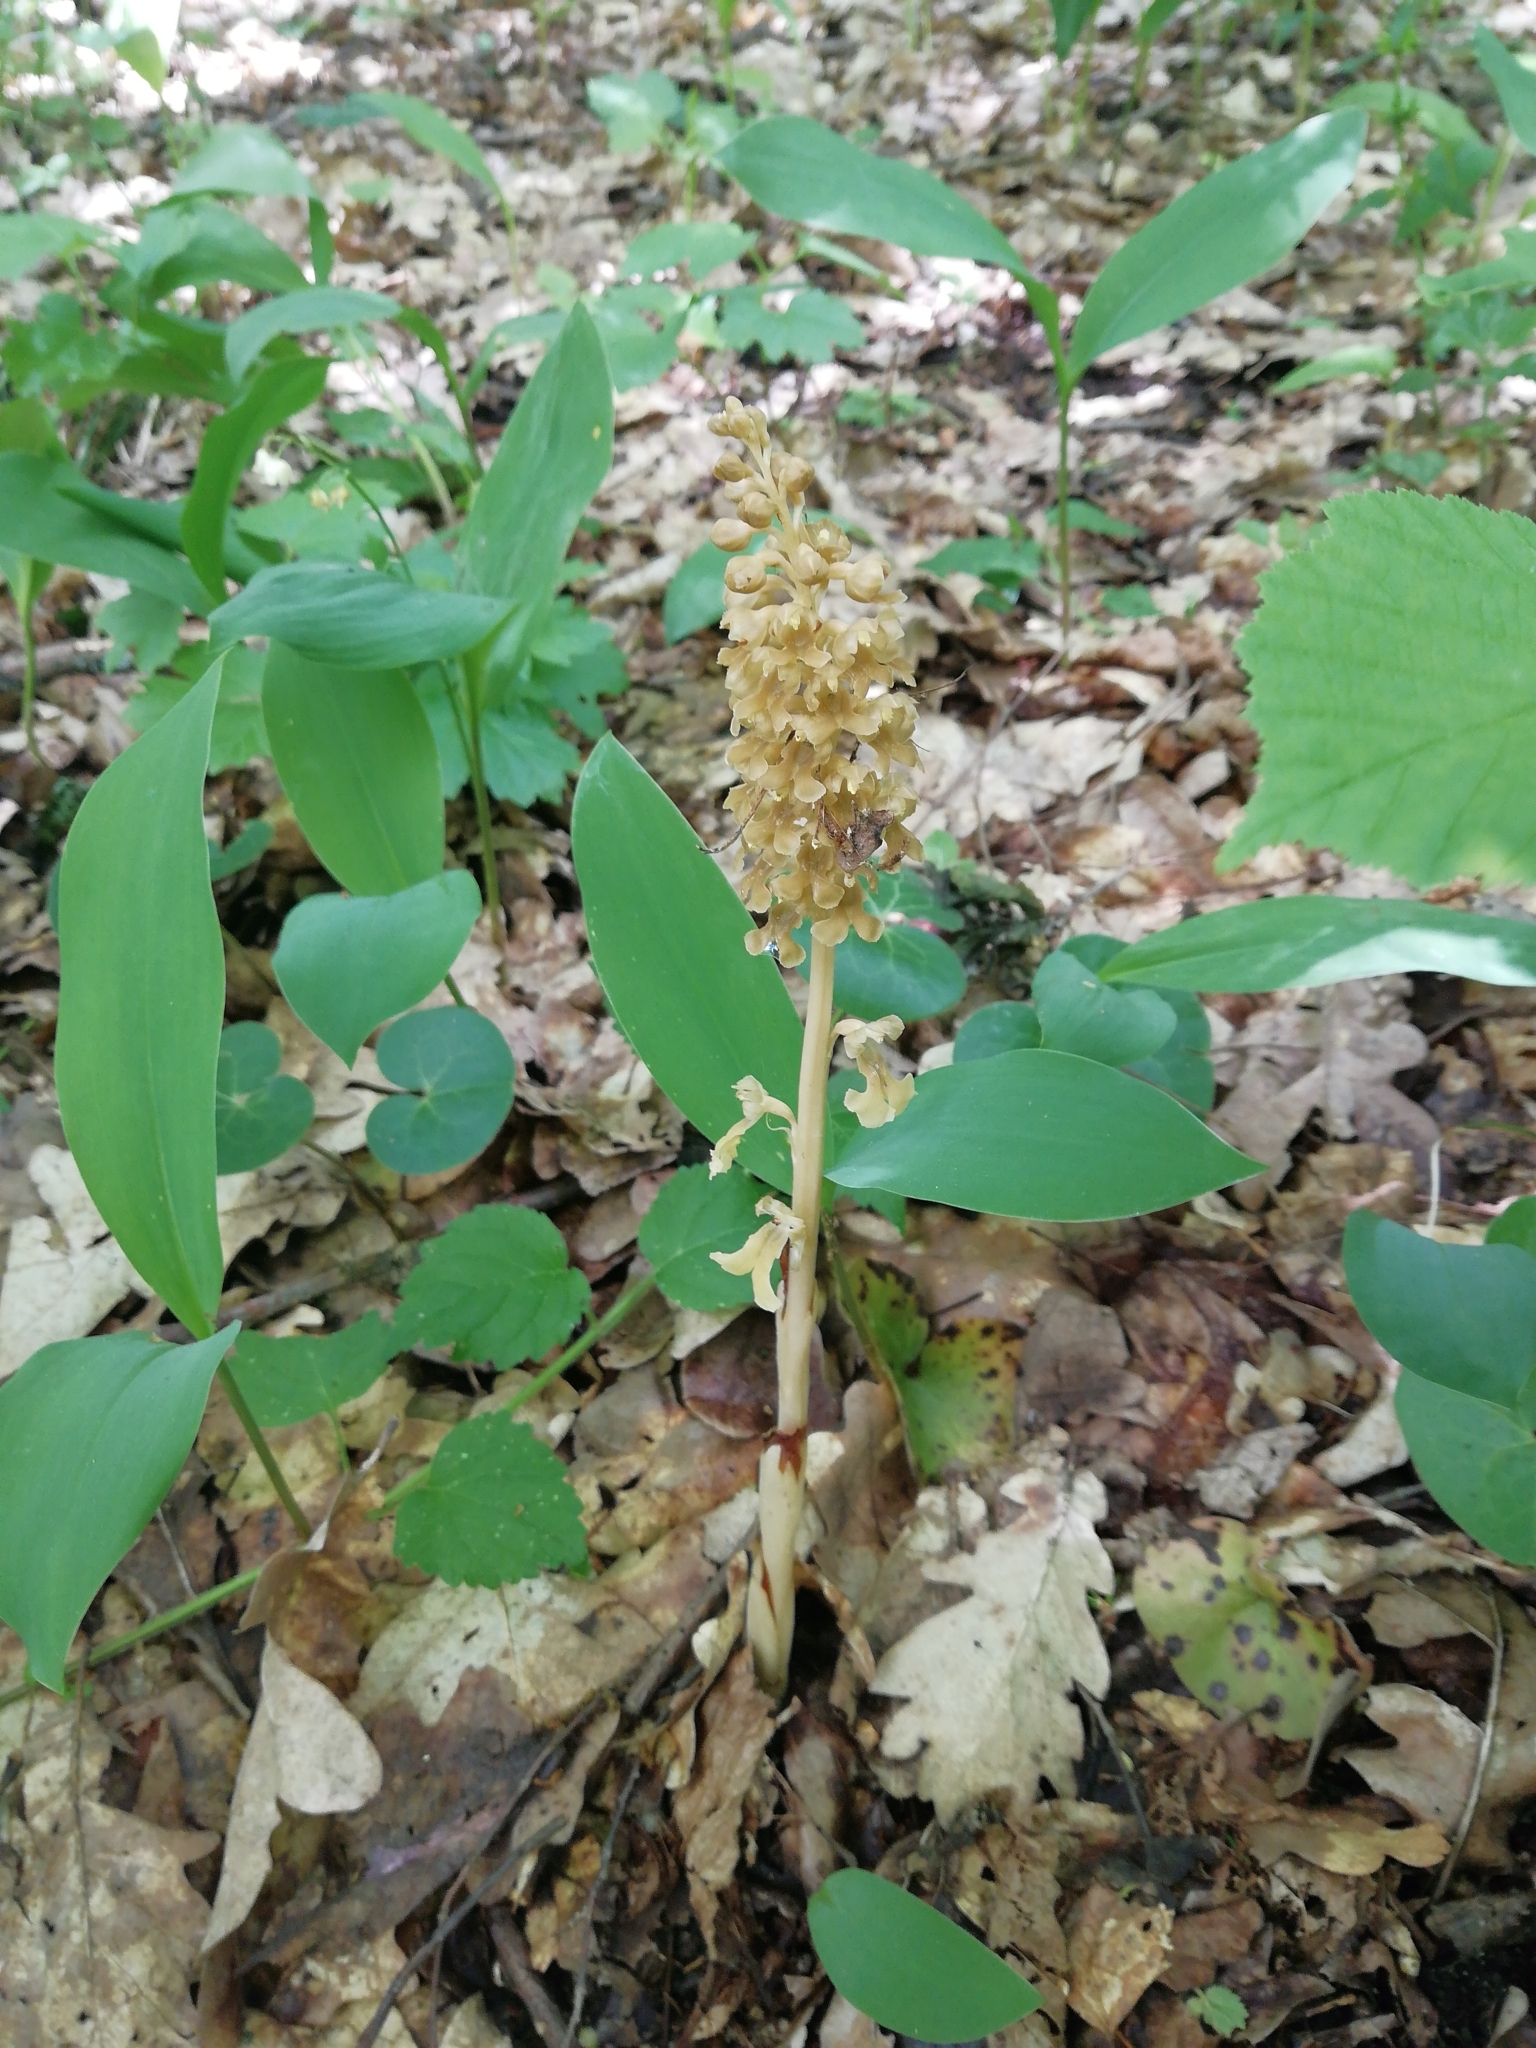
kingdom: Plantae
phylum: Tracheophyta
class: Liliopsida
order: Asparagales
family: Orchidaceae
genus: Neottia
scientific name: Neottia nidus-avis
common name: Bird's-nest orchid
